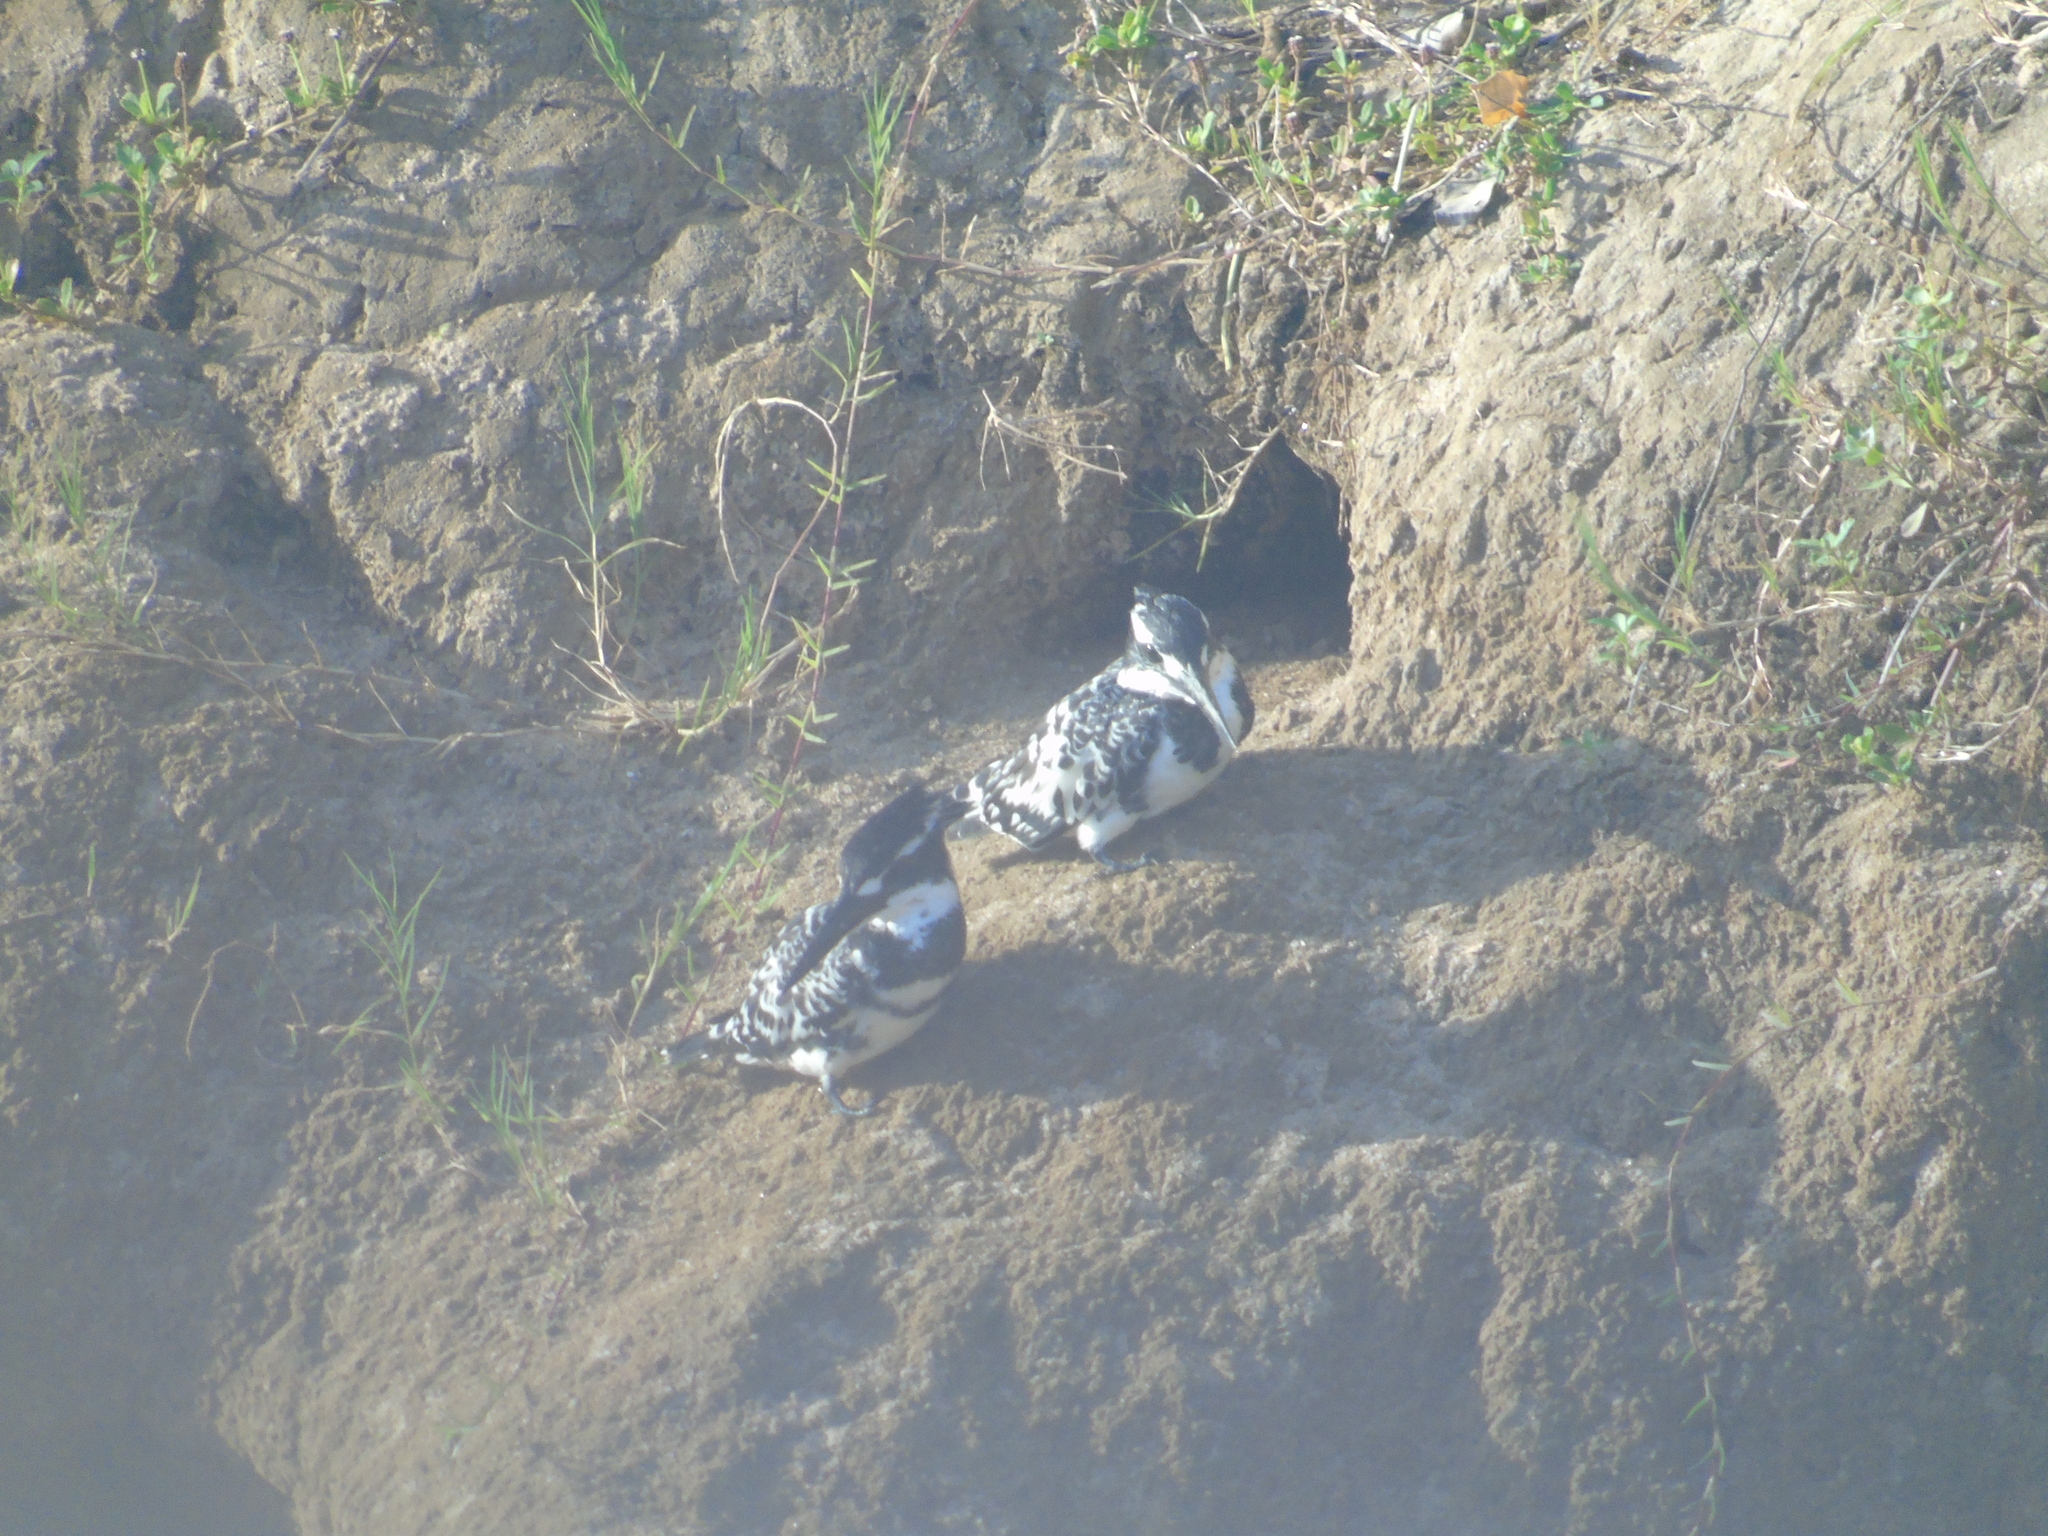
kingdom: Animalia
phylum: Chordata
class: Aves
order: Coraciiformes
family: Alcedinidae
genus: Ceryle
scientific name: Ceryle rudis
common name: Pied kingfisher
